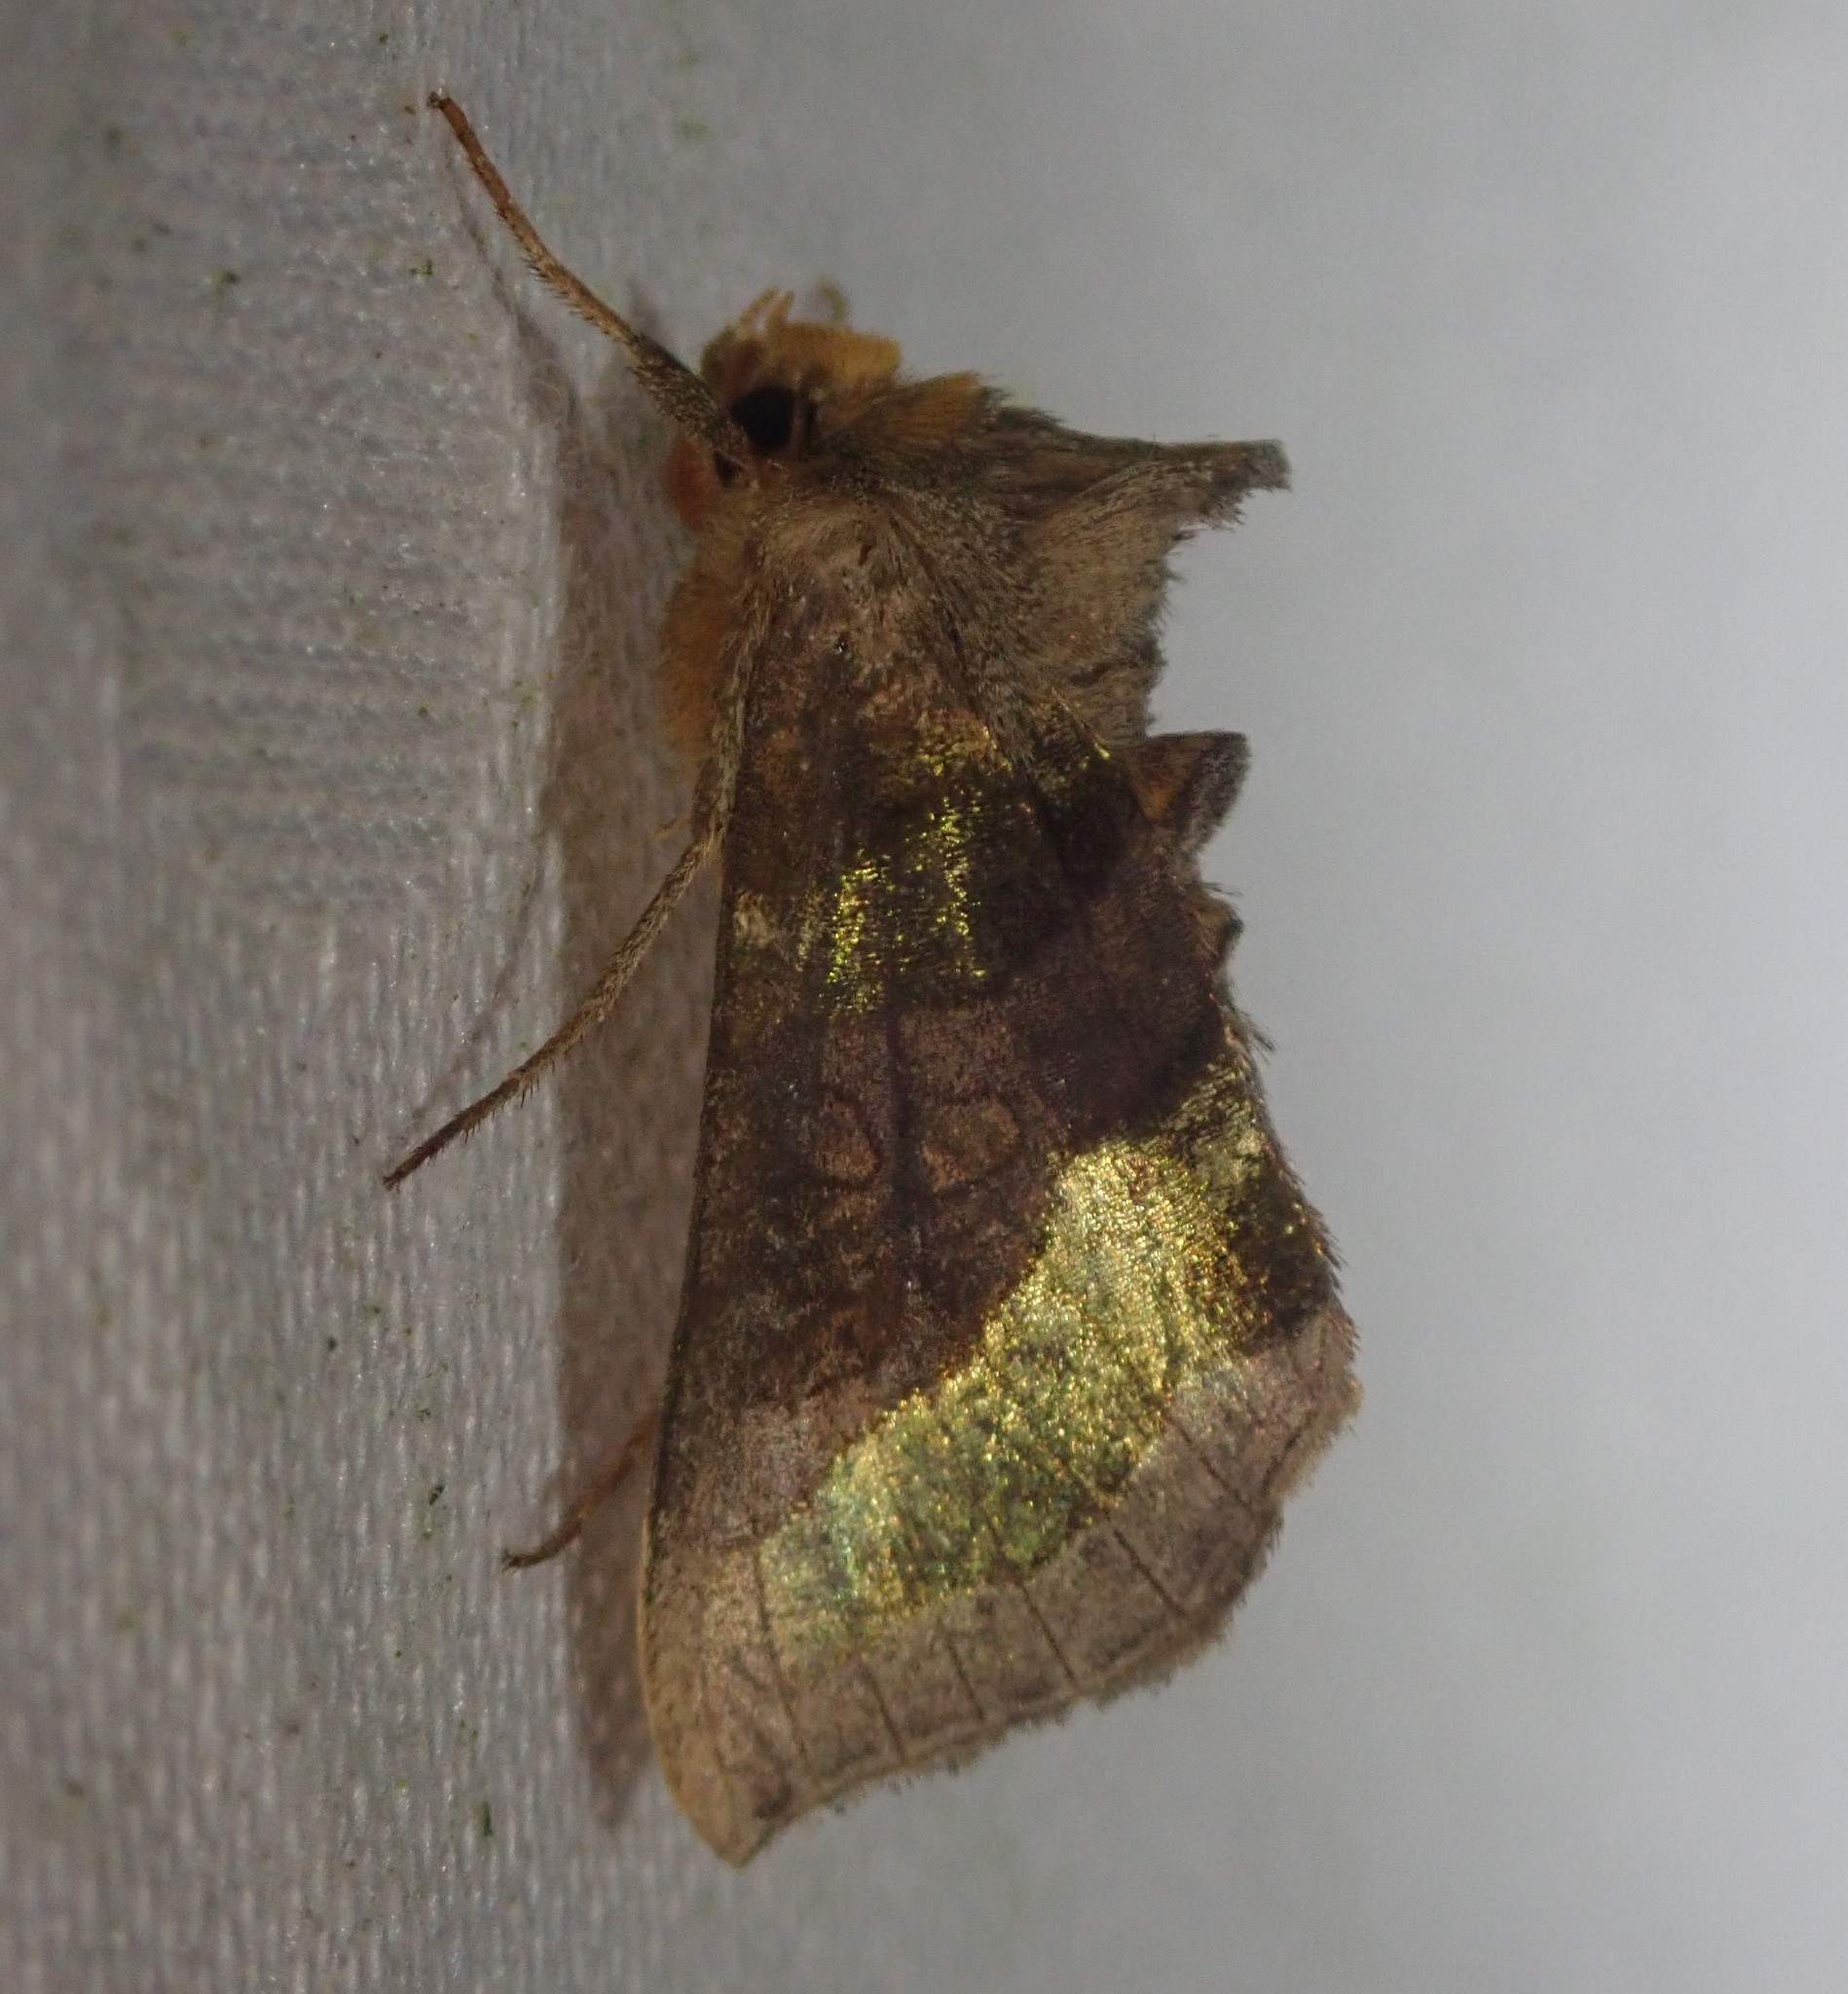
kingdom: Animalia
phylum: Arthropoda
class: Insecta
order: Lepidoptera
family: Noctuidae
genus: Diachrysia
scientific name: Diachrysia chrysitis
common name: Burnished brass
